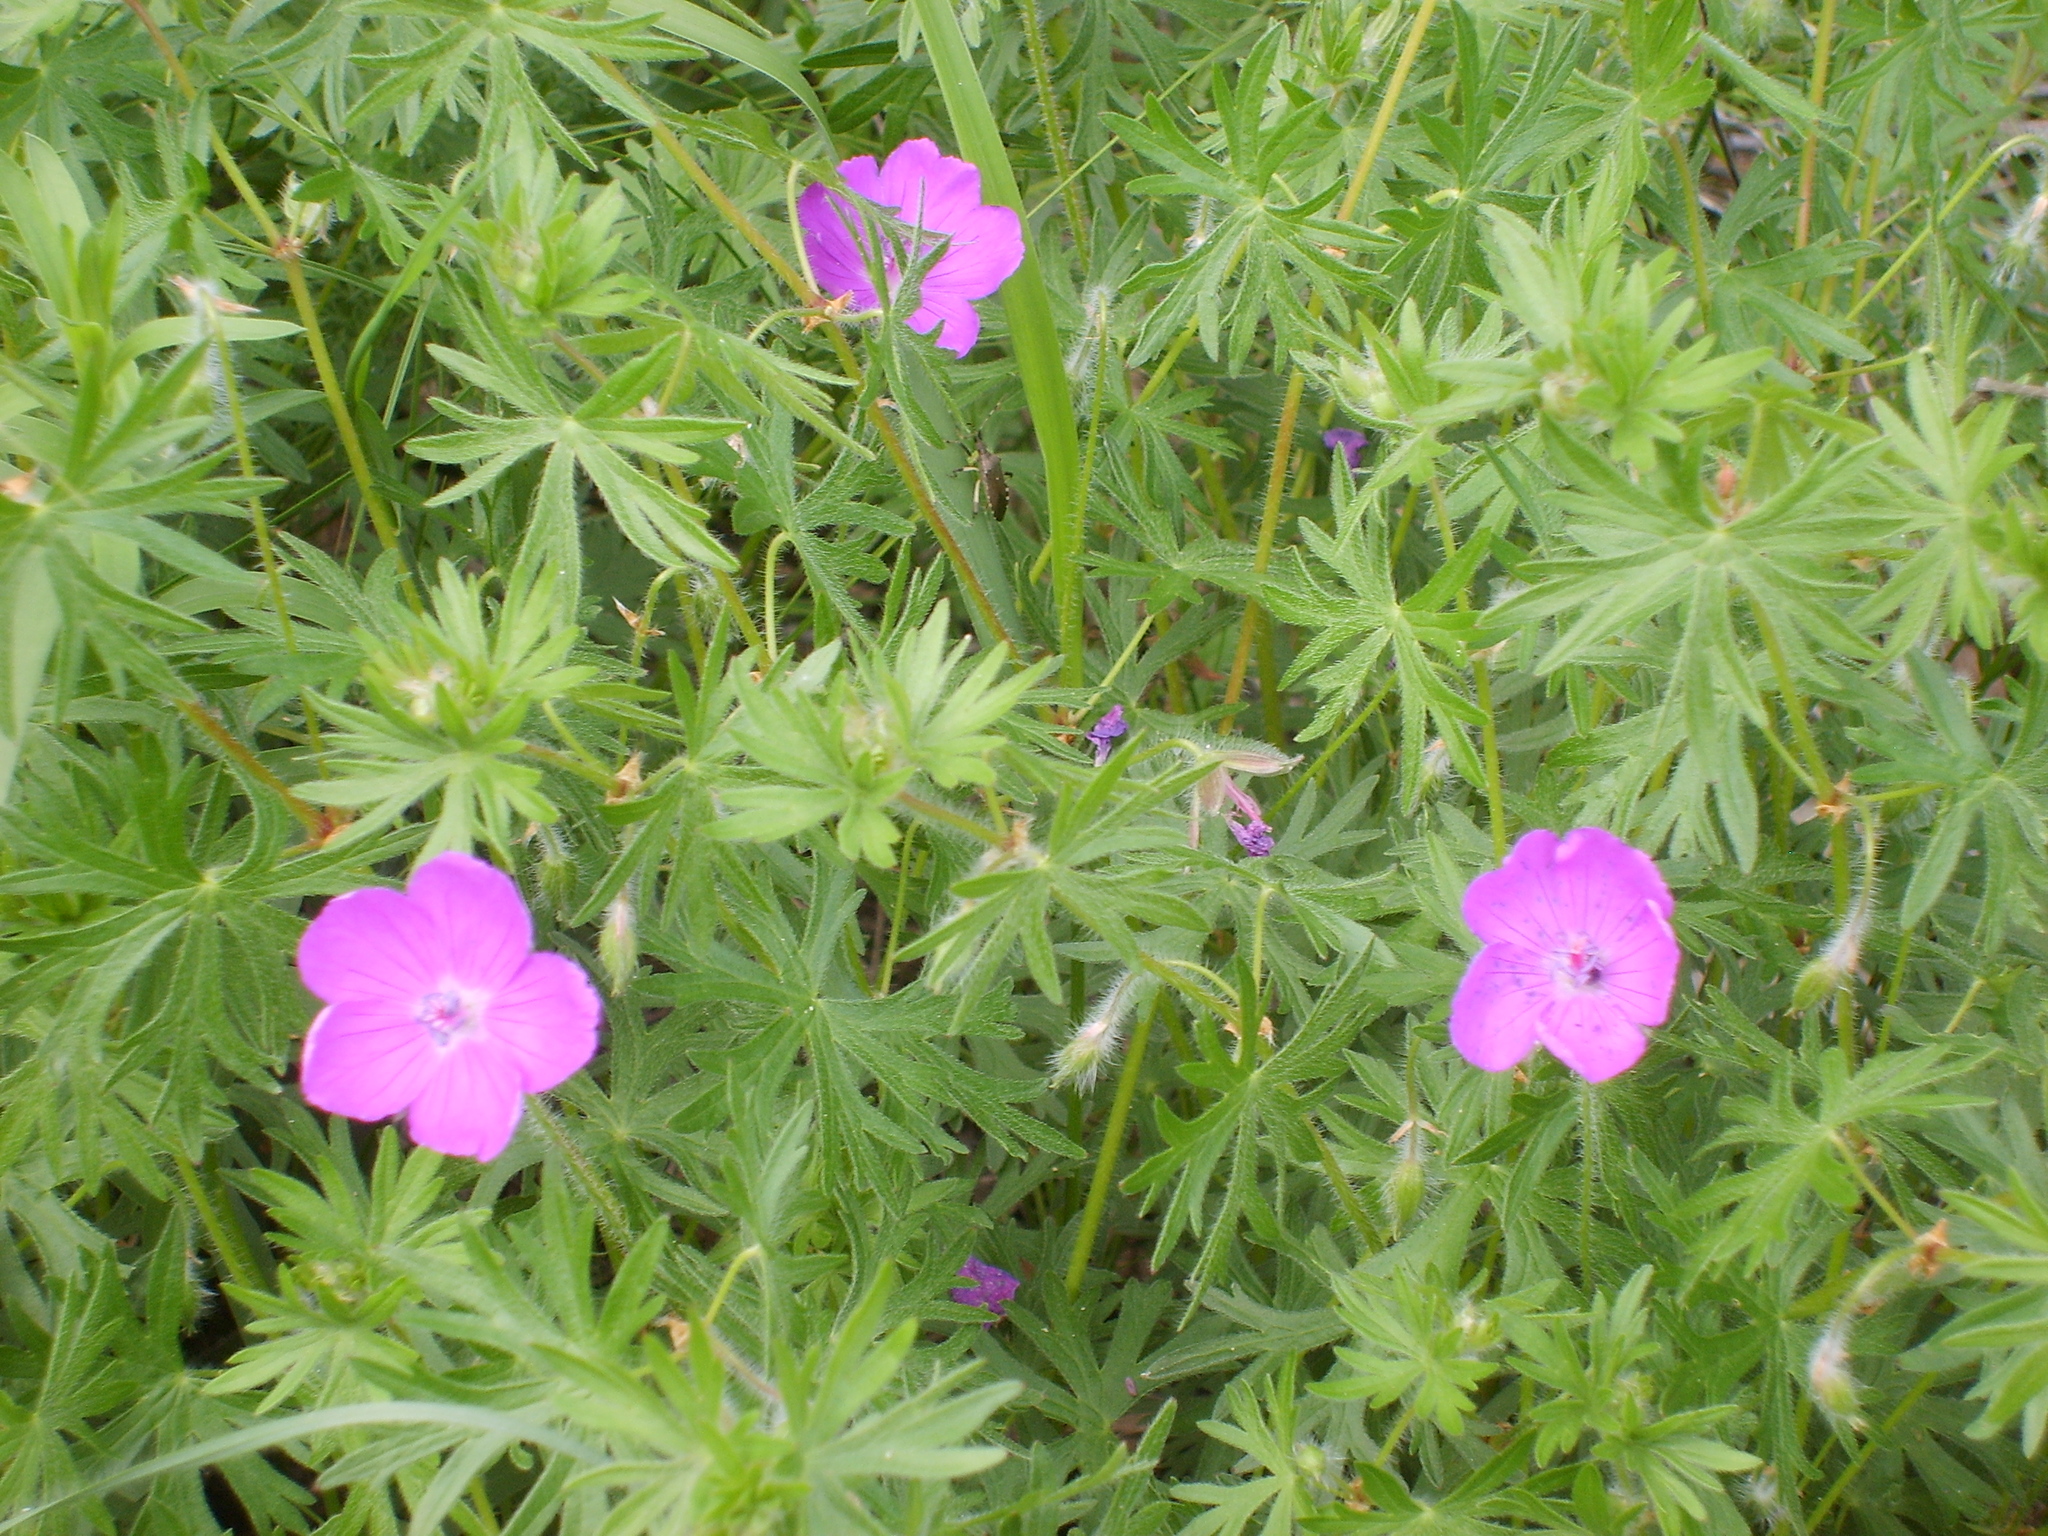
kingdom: Plantae
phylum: Tracheophyta
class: Magnoliopsida
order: Geraniales
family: Geraniaceae
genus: Geranium
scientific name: Geranium sanguineum
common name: Bloody crane's-bill
